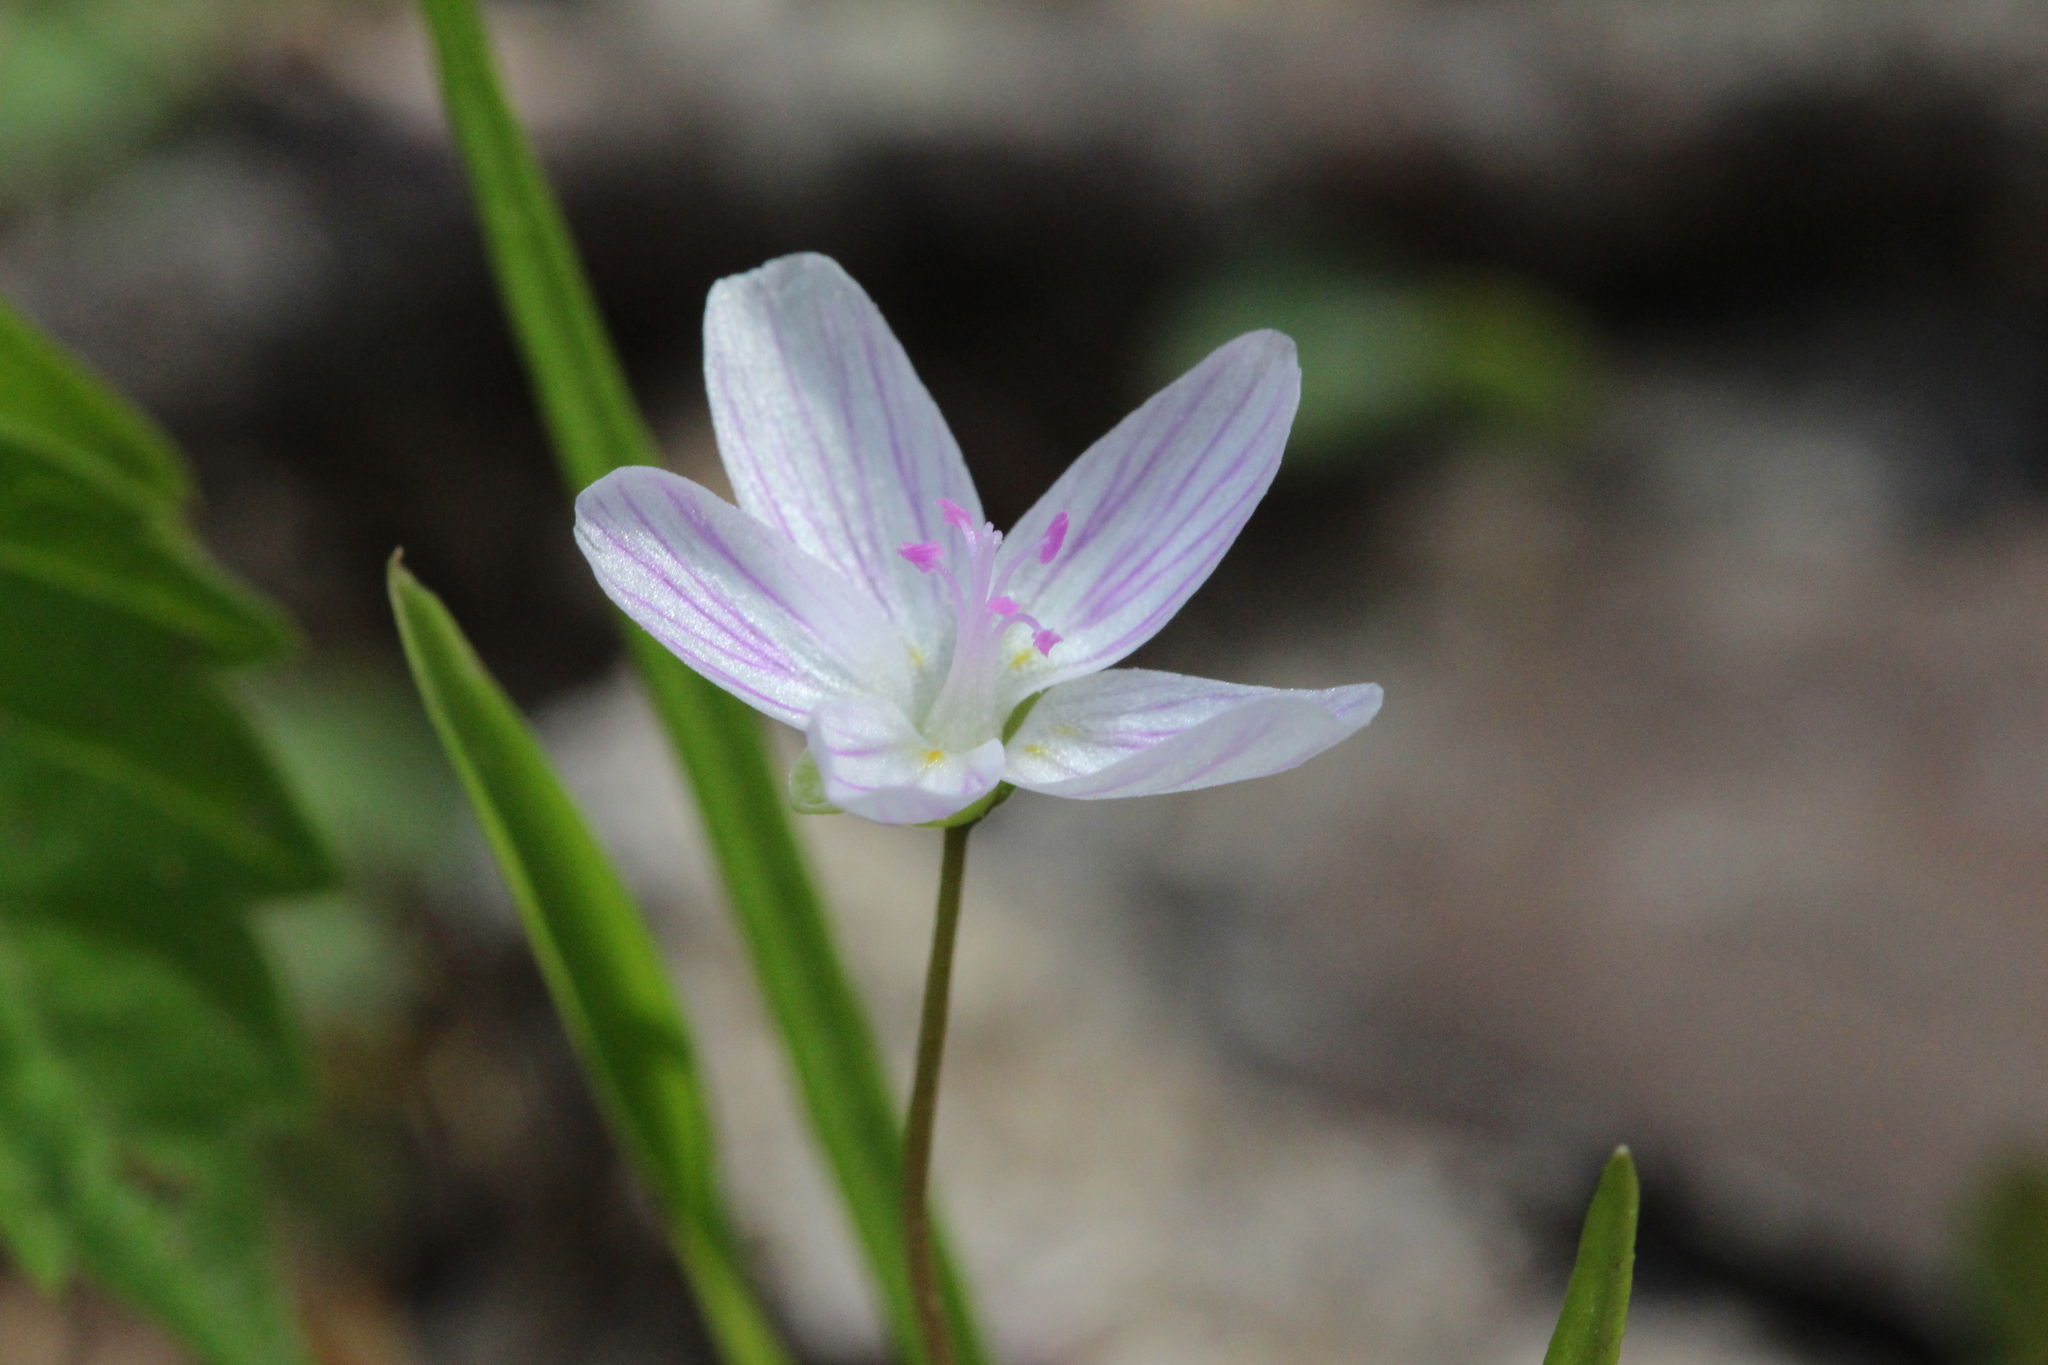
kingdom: Plantae
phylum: Tracheophyta
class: Magnoliopsida
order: Caryophyllales
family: Montiaceae
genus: Claytonia
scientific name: Claytonia virginica
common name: Virginia springbeauty
